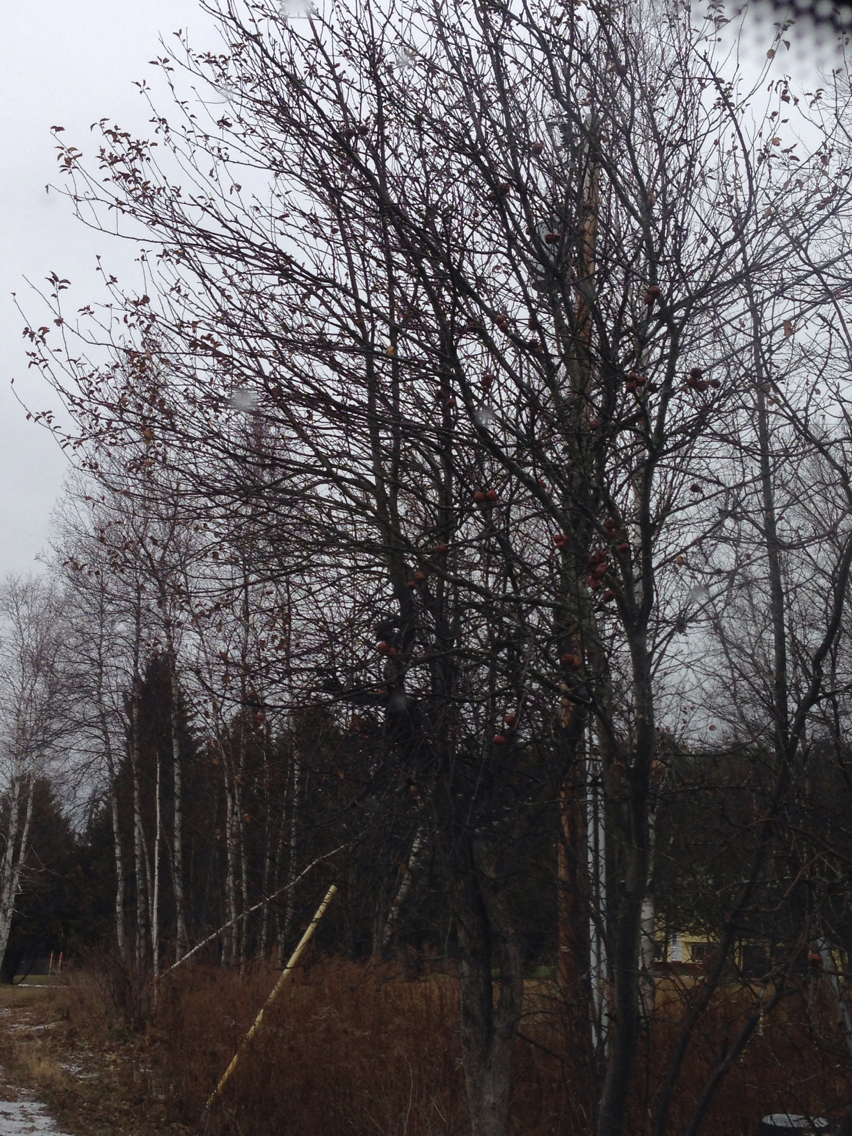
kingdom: Plantae
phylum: Tracheophyta
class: Magnoliopsida
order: Rosales
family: Rosaceae
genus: Malus
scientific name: Malus domestica
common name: Apple
